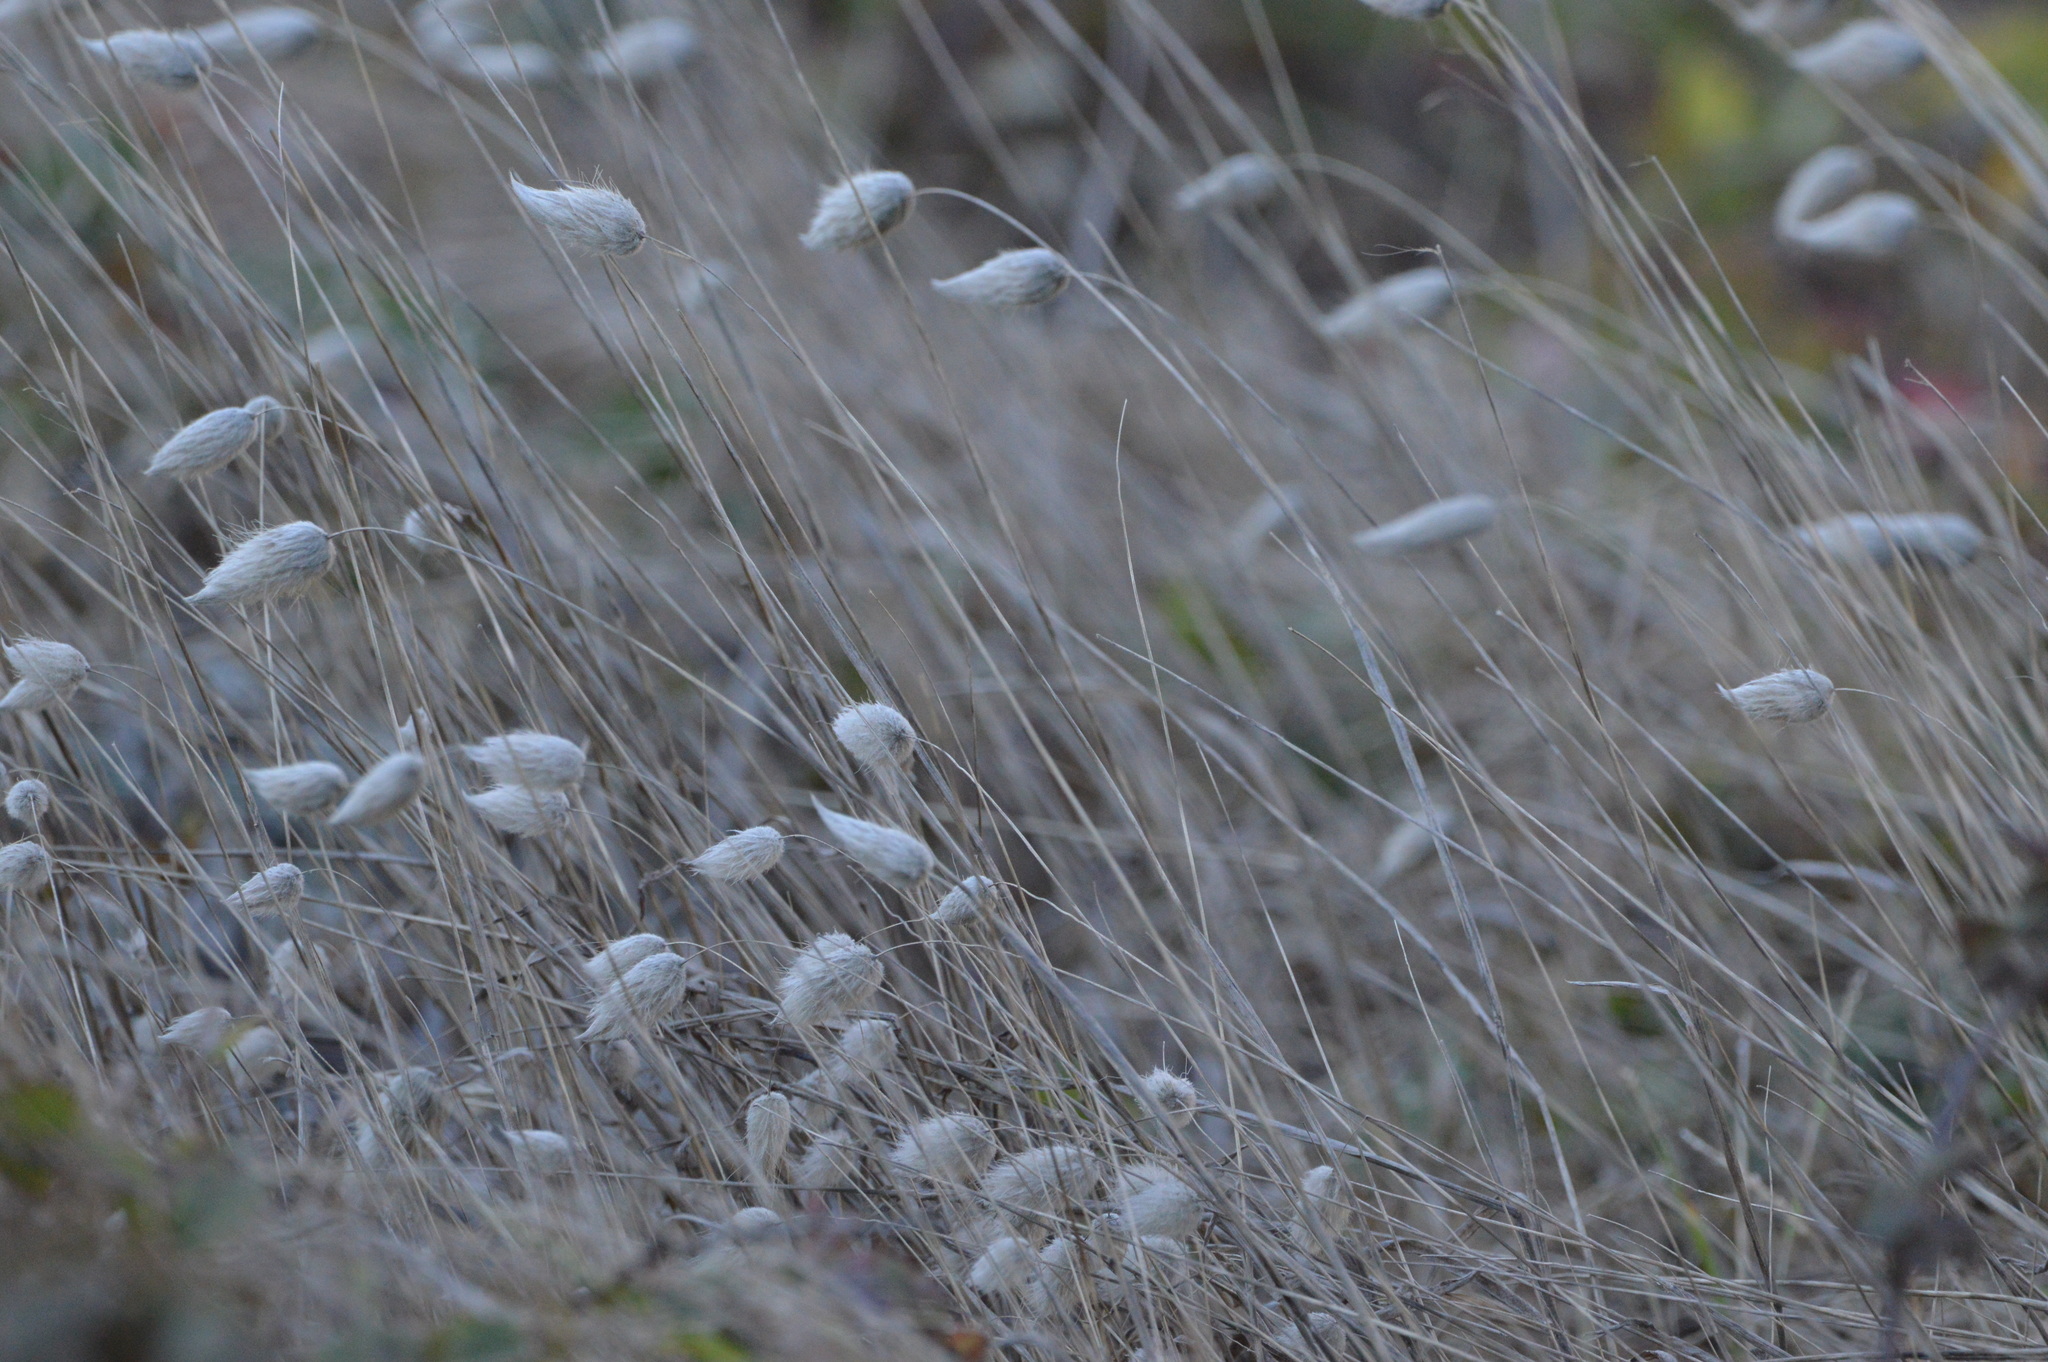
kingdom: Plantae
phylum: Tracheophyta
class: Liliopsida
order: Poales
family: Poaceae
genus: Lagurus
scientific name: Lagurus ovatus
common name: Hare's-tail
